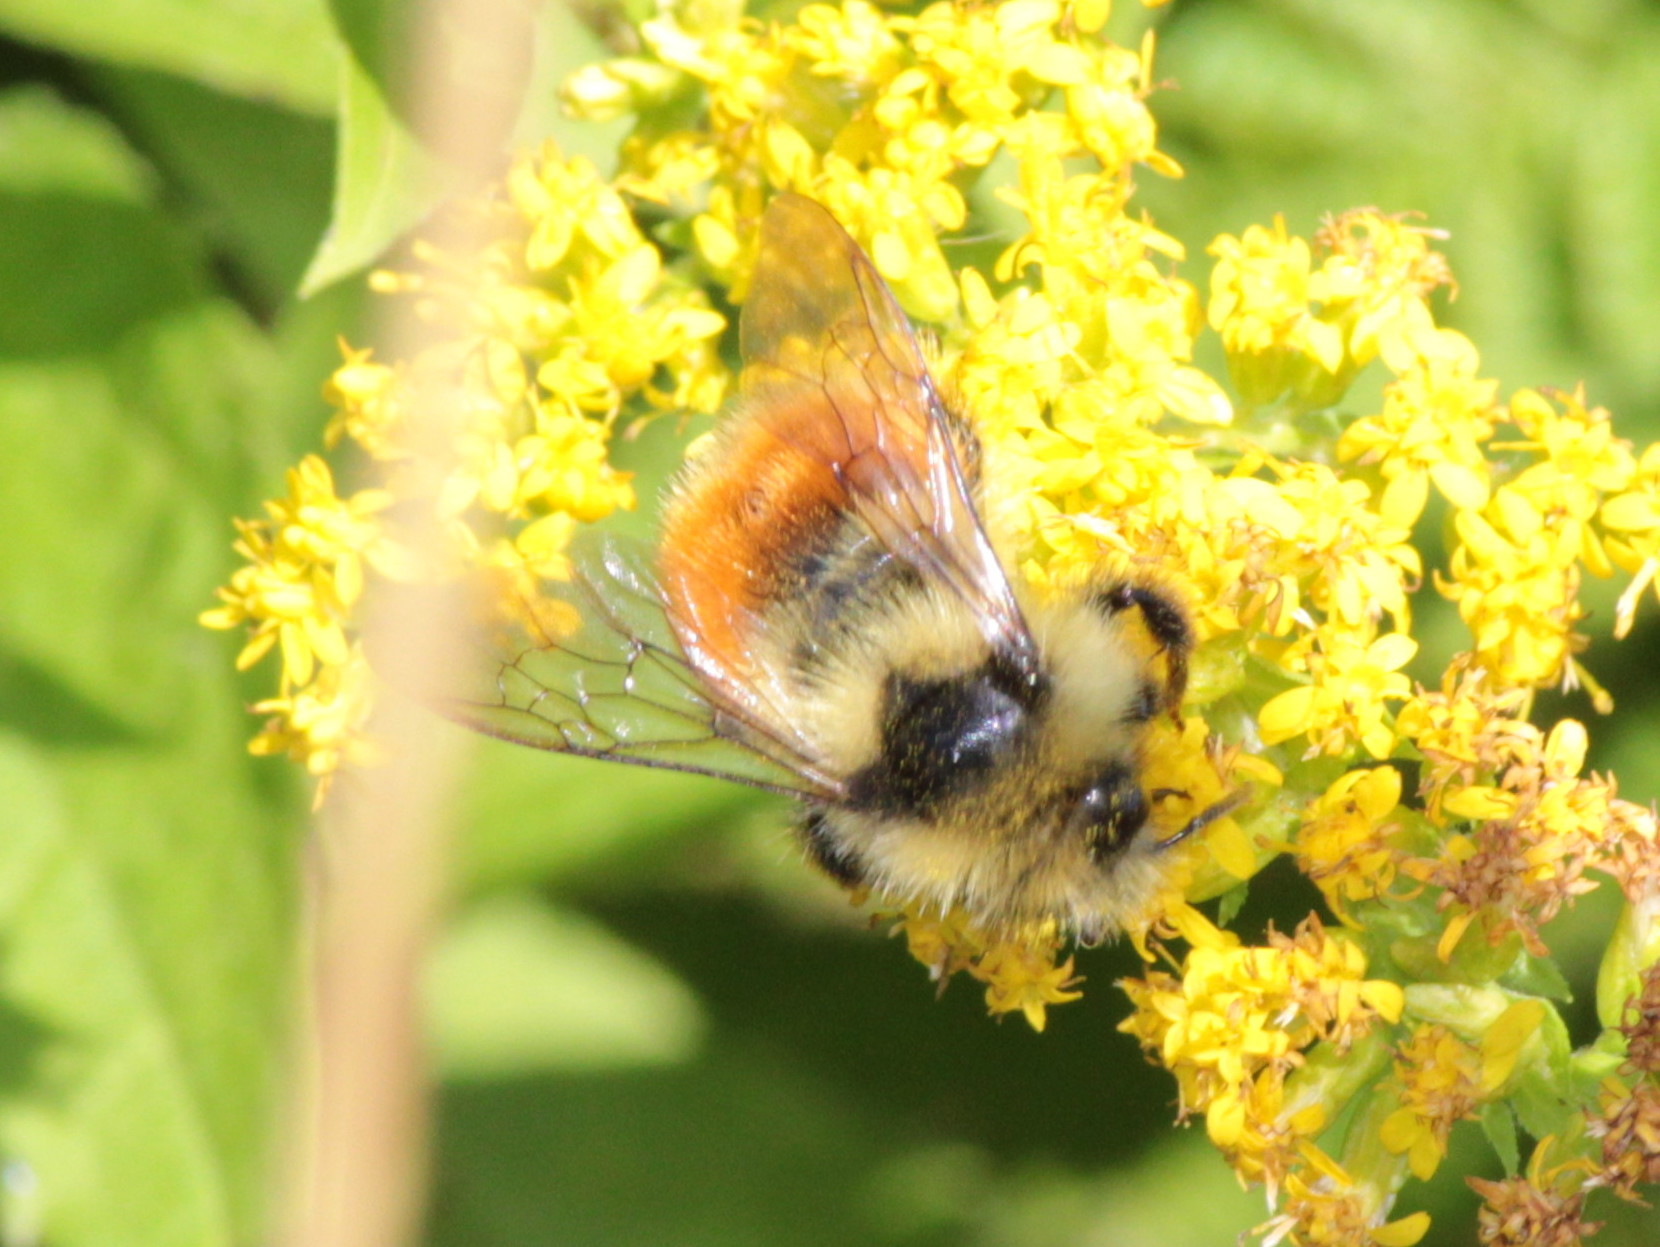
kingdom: Animalia
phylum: Arthropoda
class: Insecta
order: Hymenoptera
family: Apidae
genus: Bombus
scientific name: Bombus ternarius
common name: Tri-colored bumble bee
